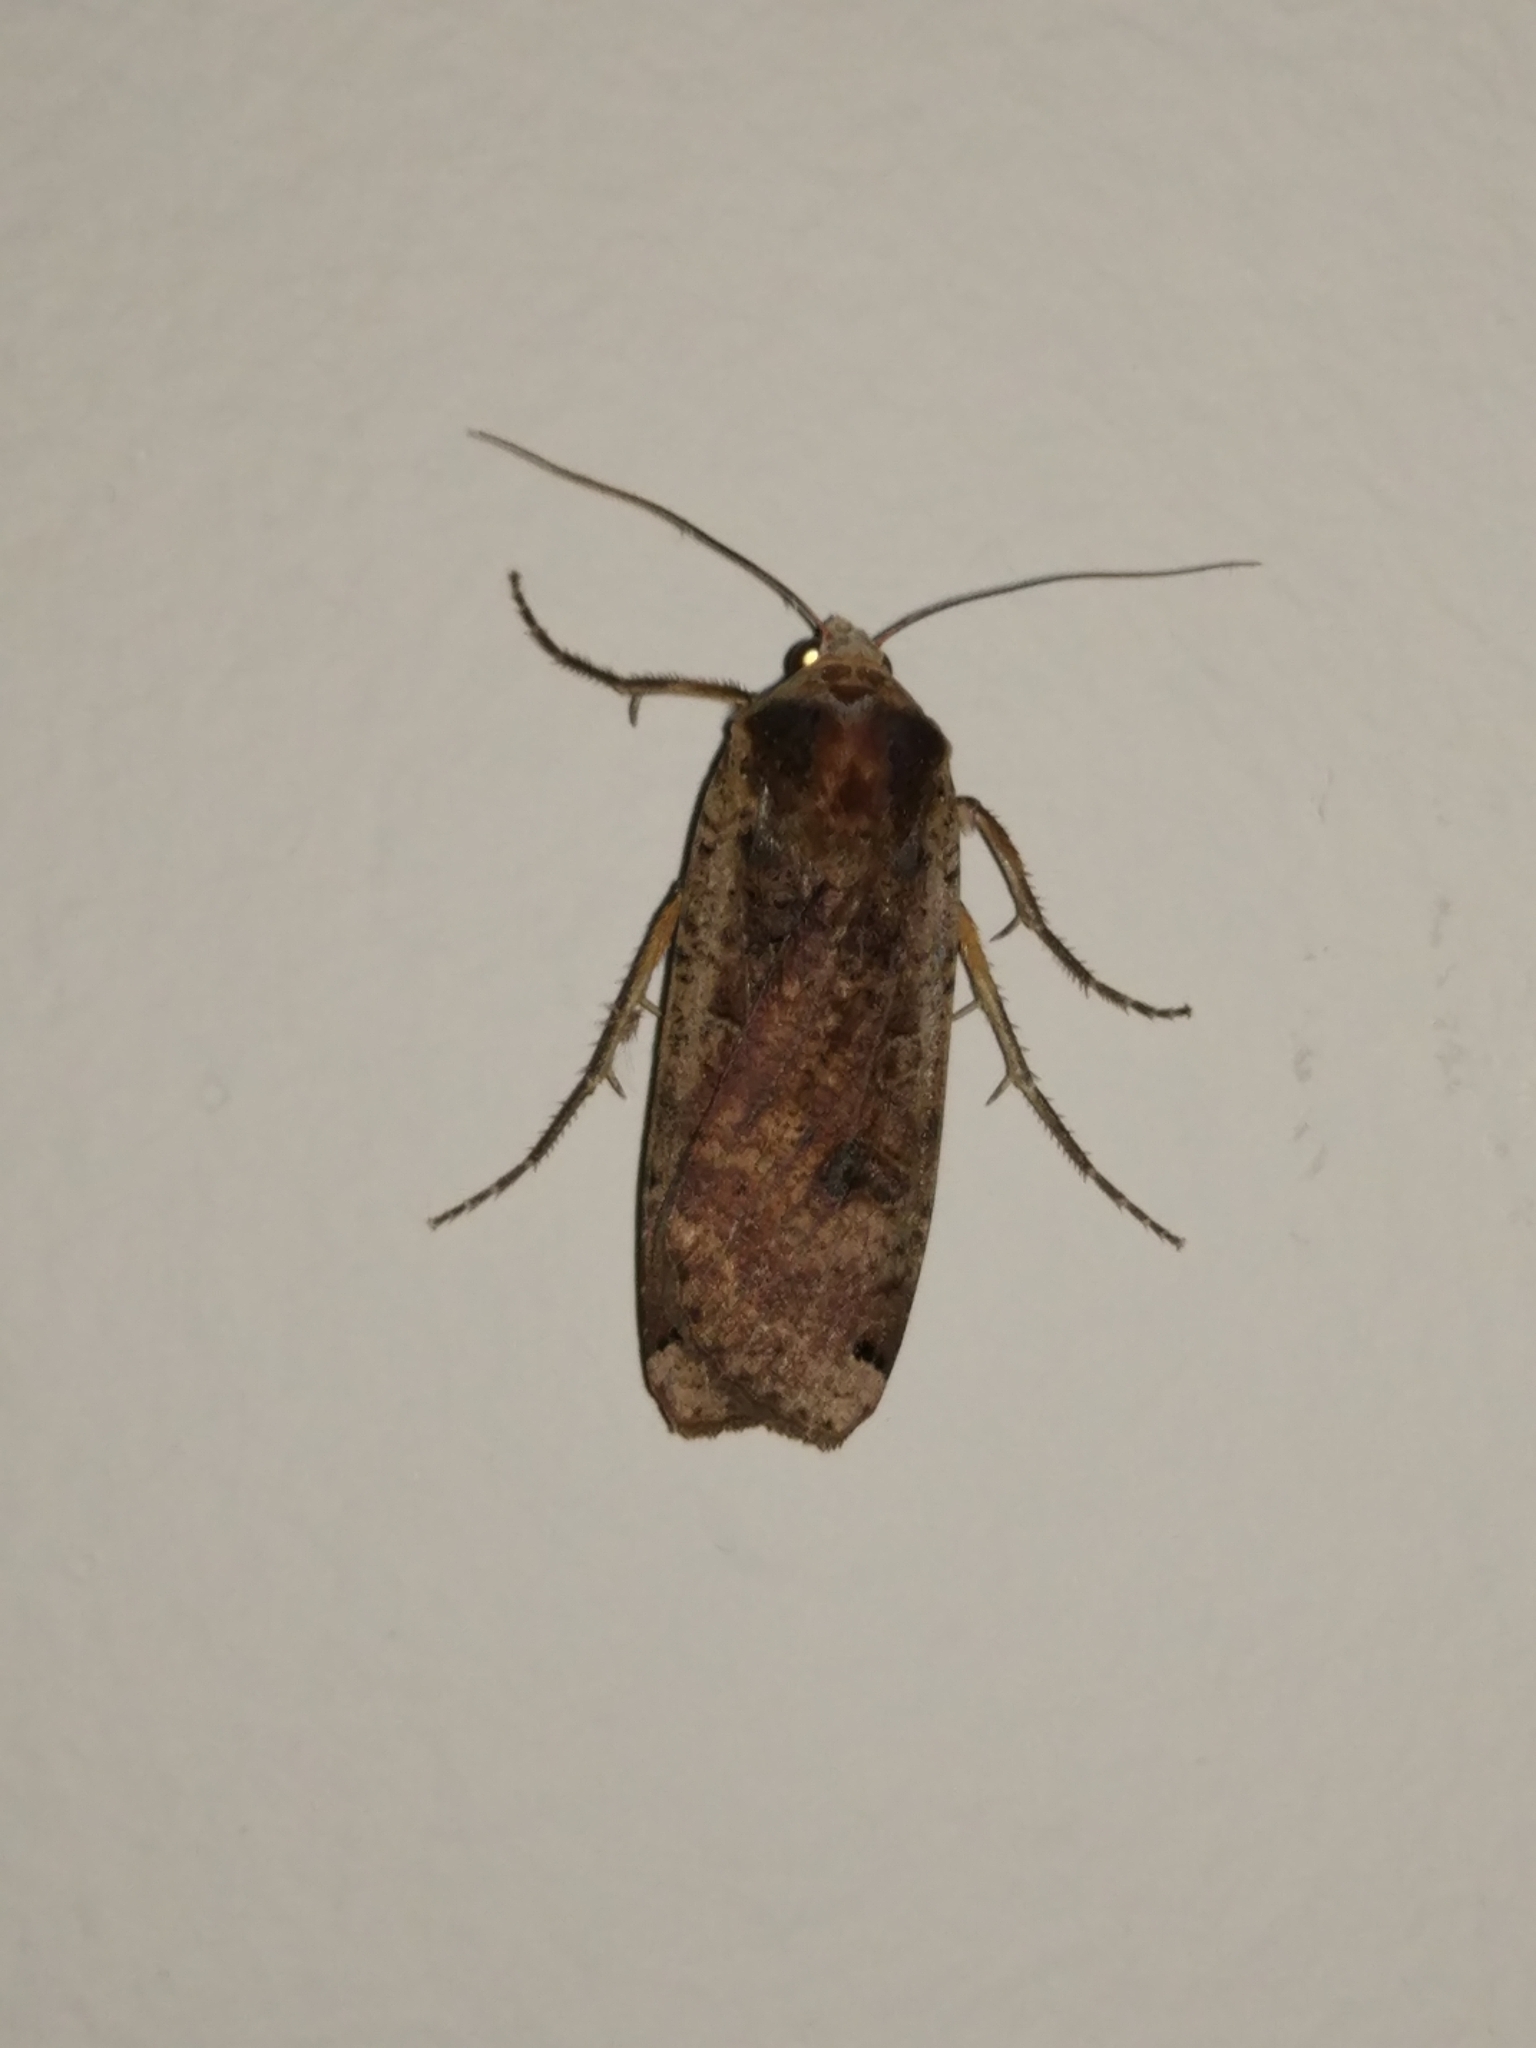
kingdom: Animalia
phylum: Arthropoda
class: Insecta
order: Lepidoptera
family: Noctuidae
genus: Noctua
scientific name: Noctua pronuba
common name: Large yellow underwing
